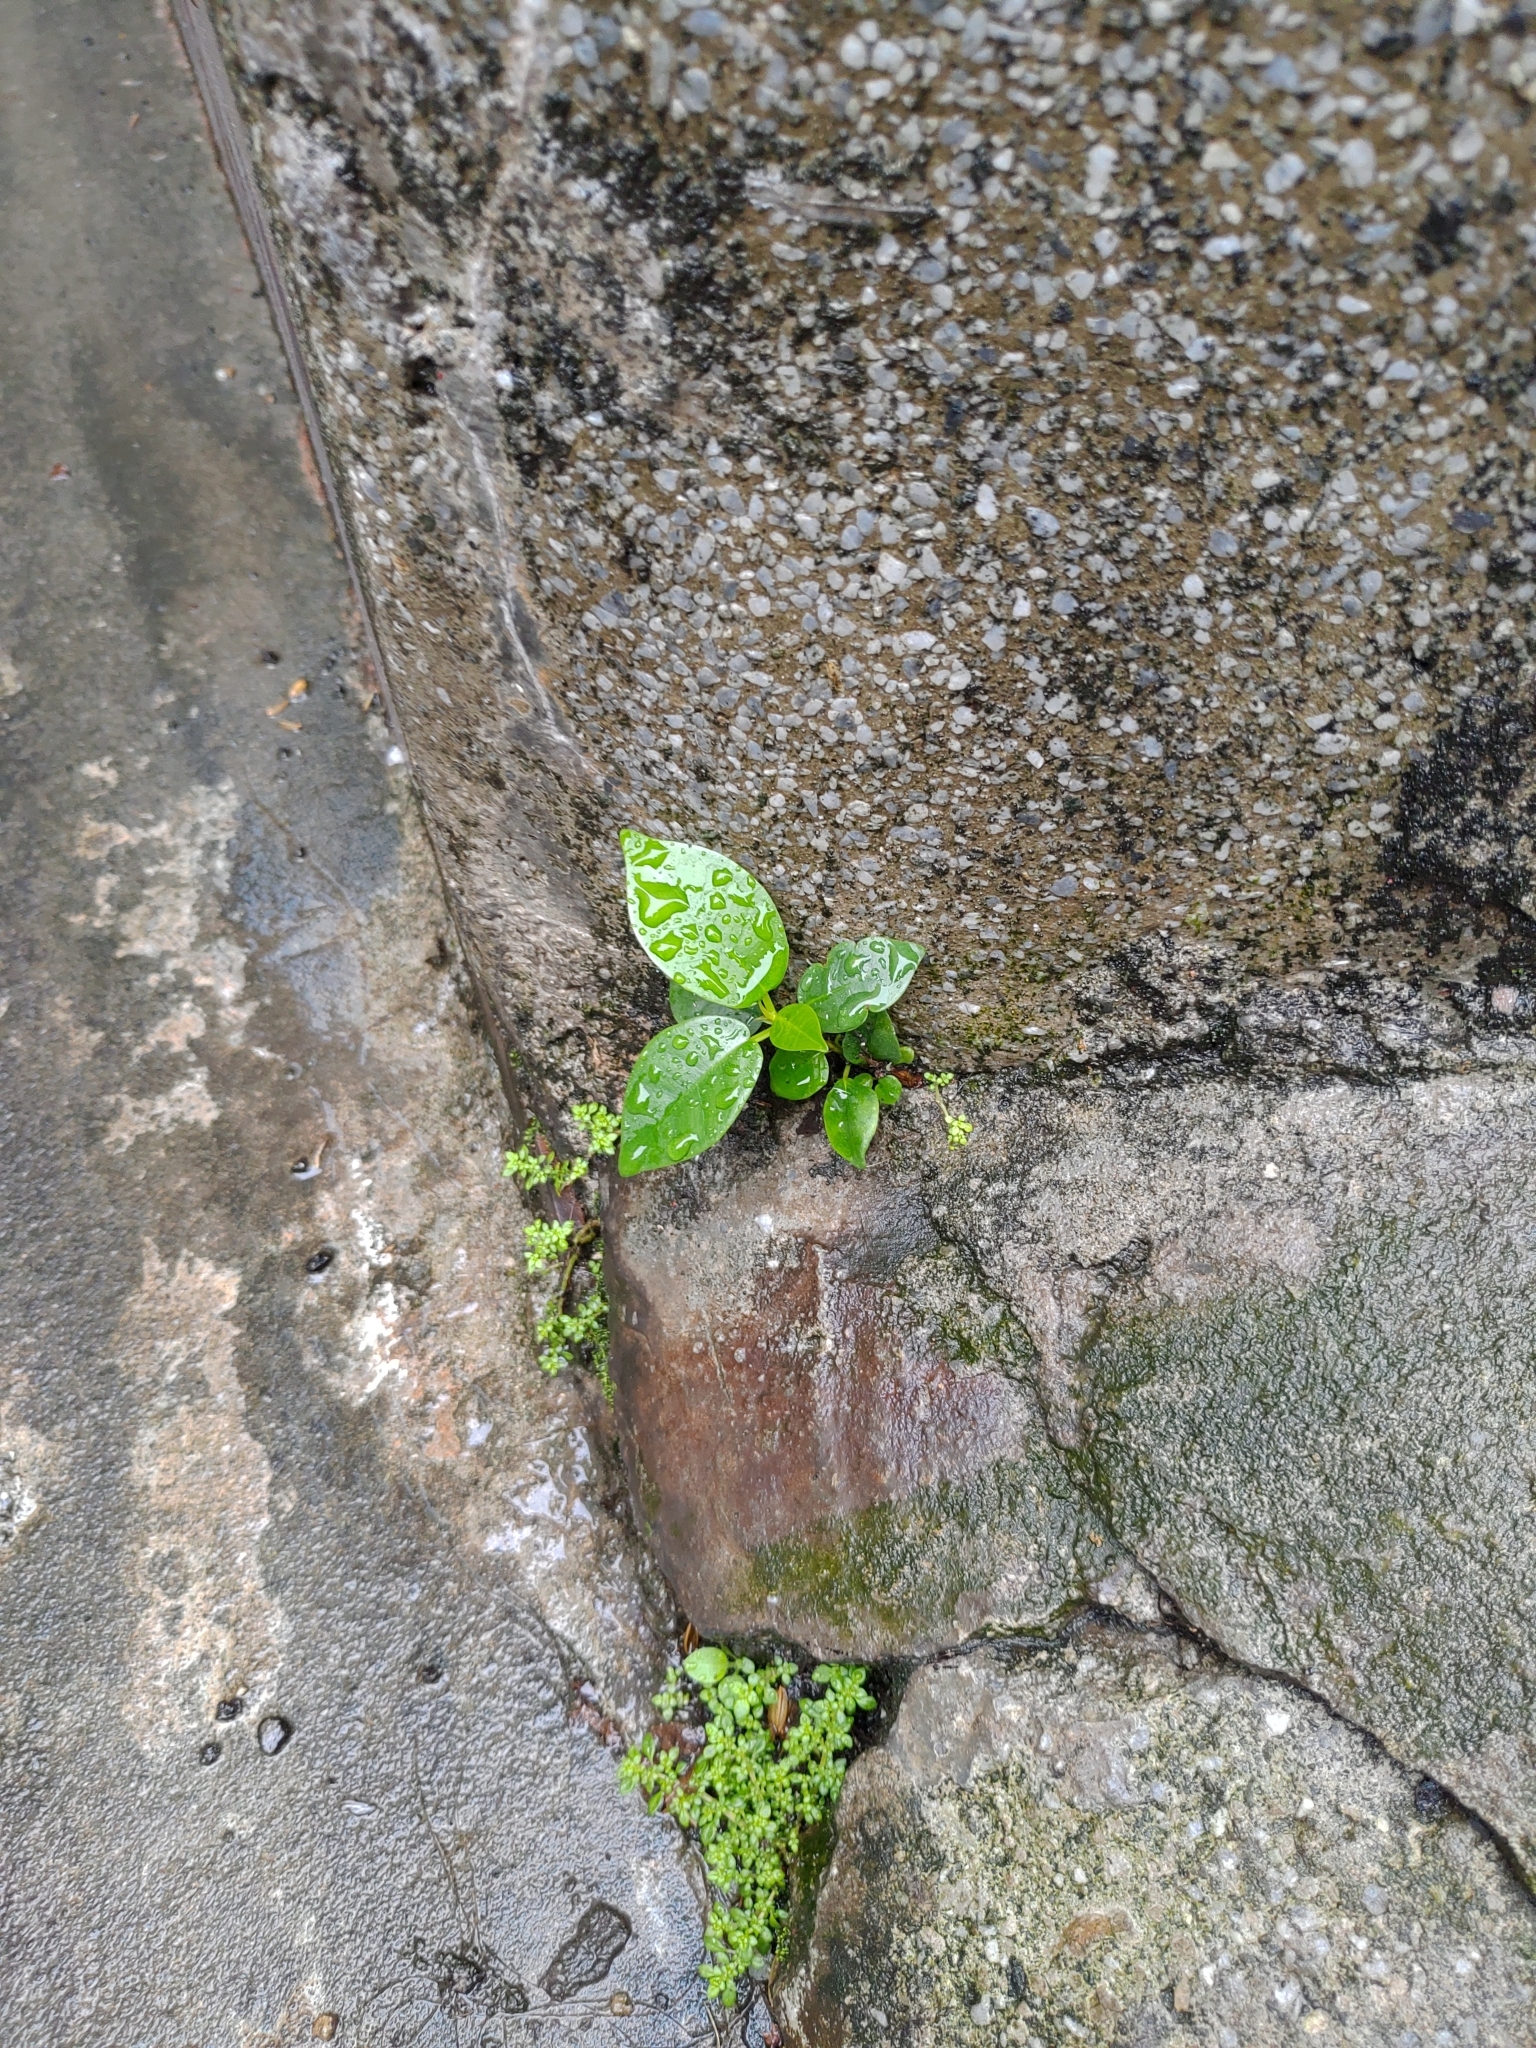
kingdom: Plantae
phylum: Tracheophyta
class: Magnoliopsida
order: Rosales
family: Moraceae
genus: Ficus
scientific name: Ficus microcarpa
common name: Chinese banyan
